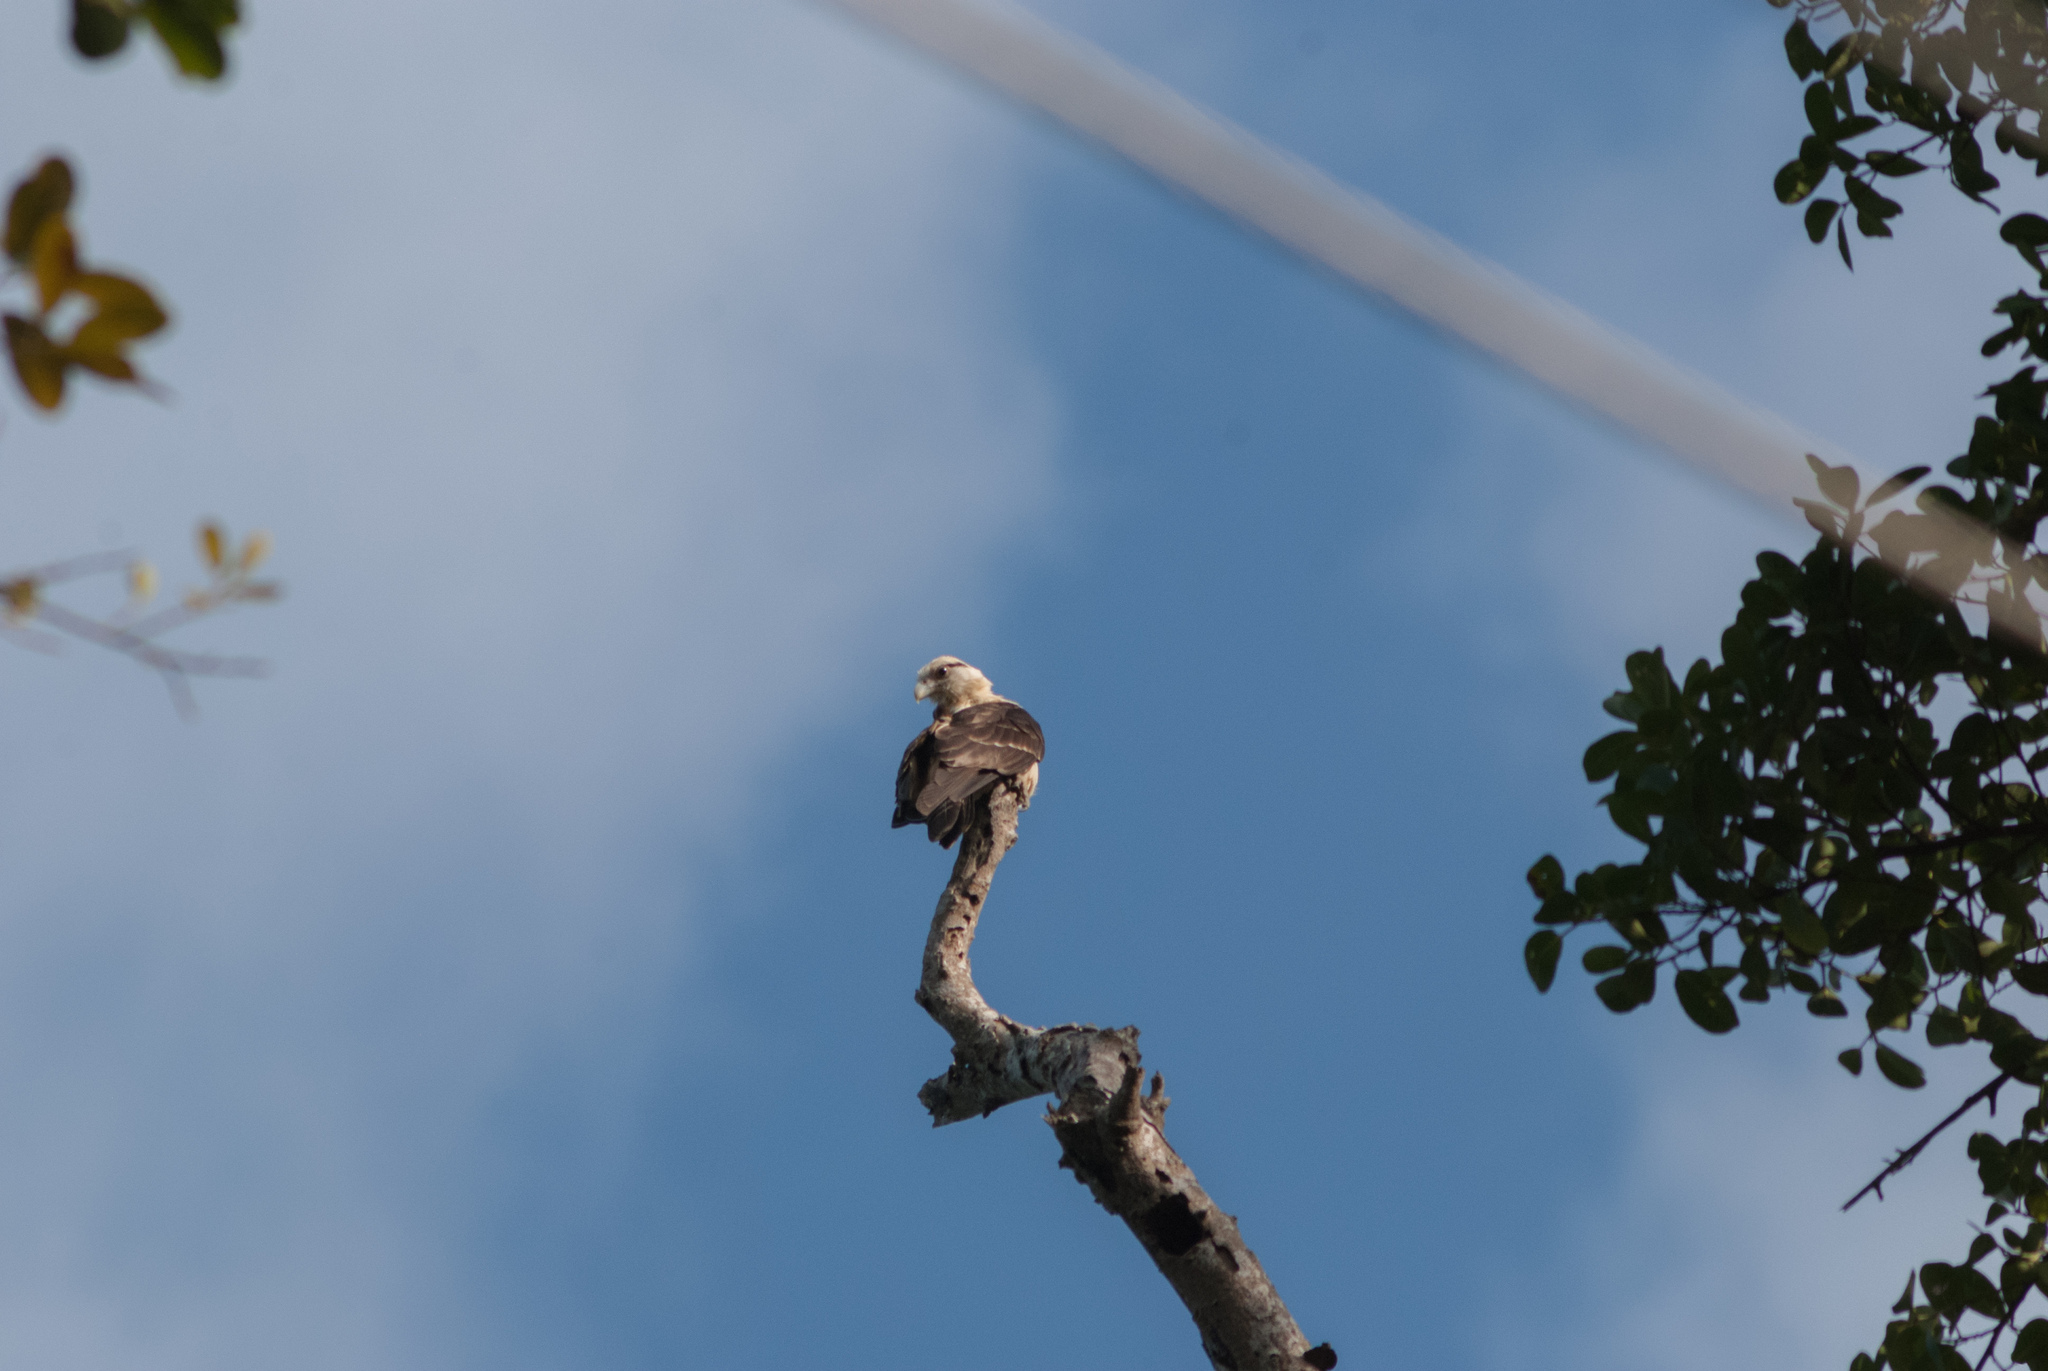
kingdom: Animalia
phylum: Chordata
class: Aves
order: Falconiformes
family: Falconidae
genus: Daptrius
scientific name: Daptrius
